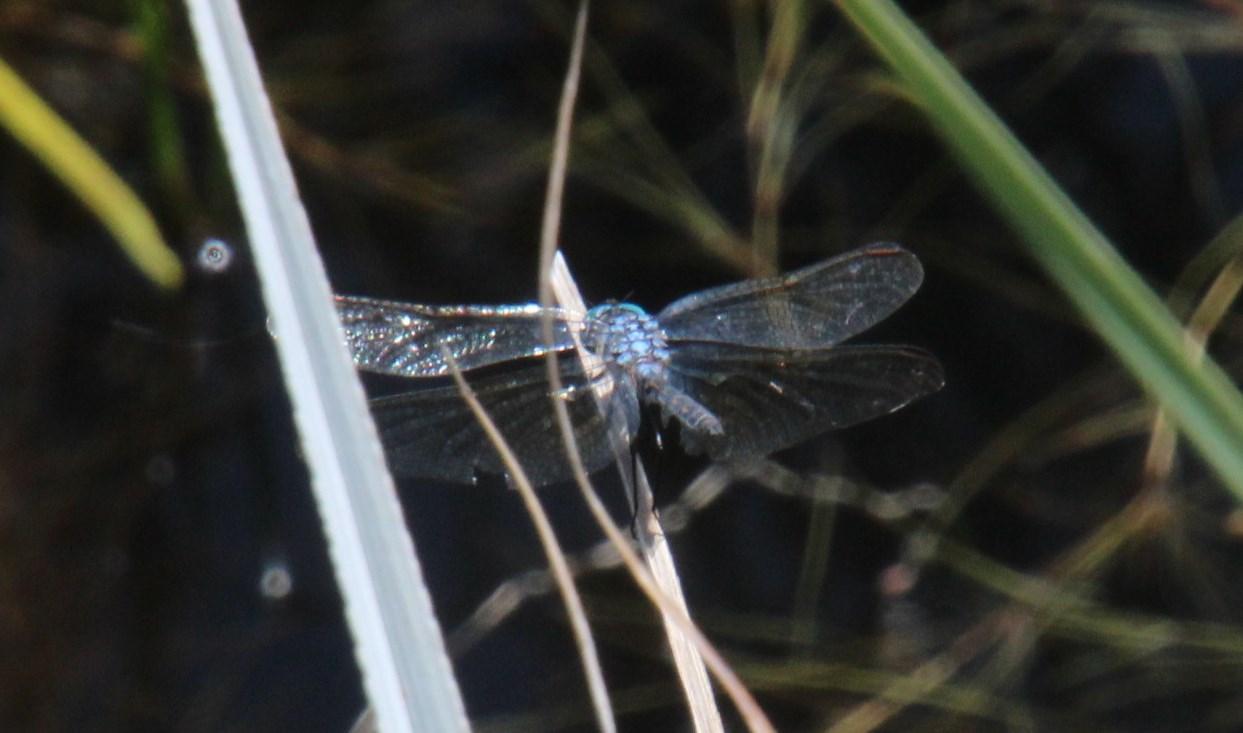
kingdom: Animalia
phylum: Arthropoda
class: Insecta
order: Odonata
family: Libellulidae
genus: Trithemis
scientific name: Trithemis stictica
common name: Jaunty dropwing
